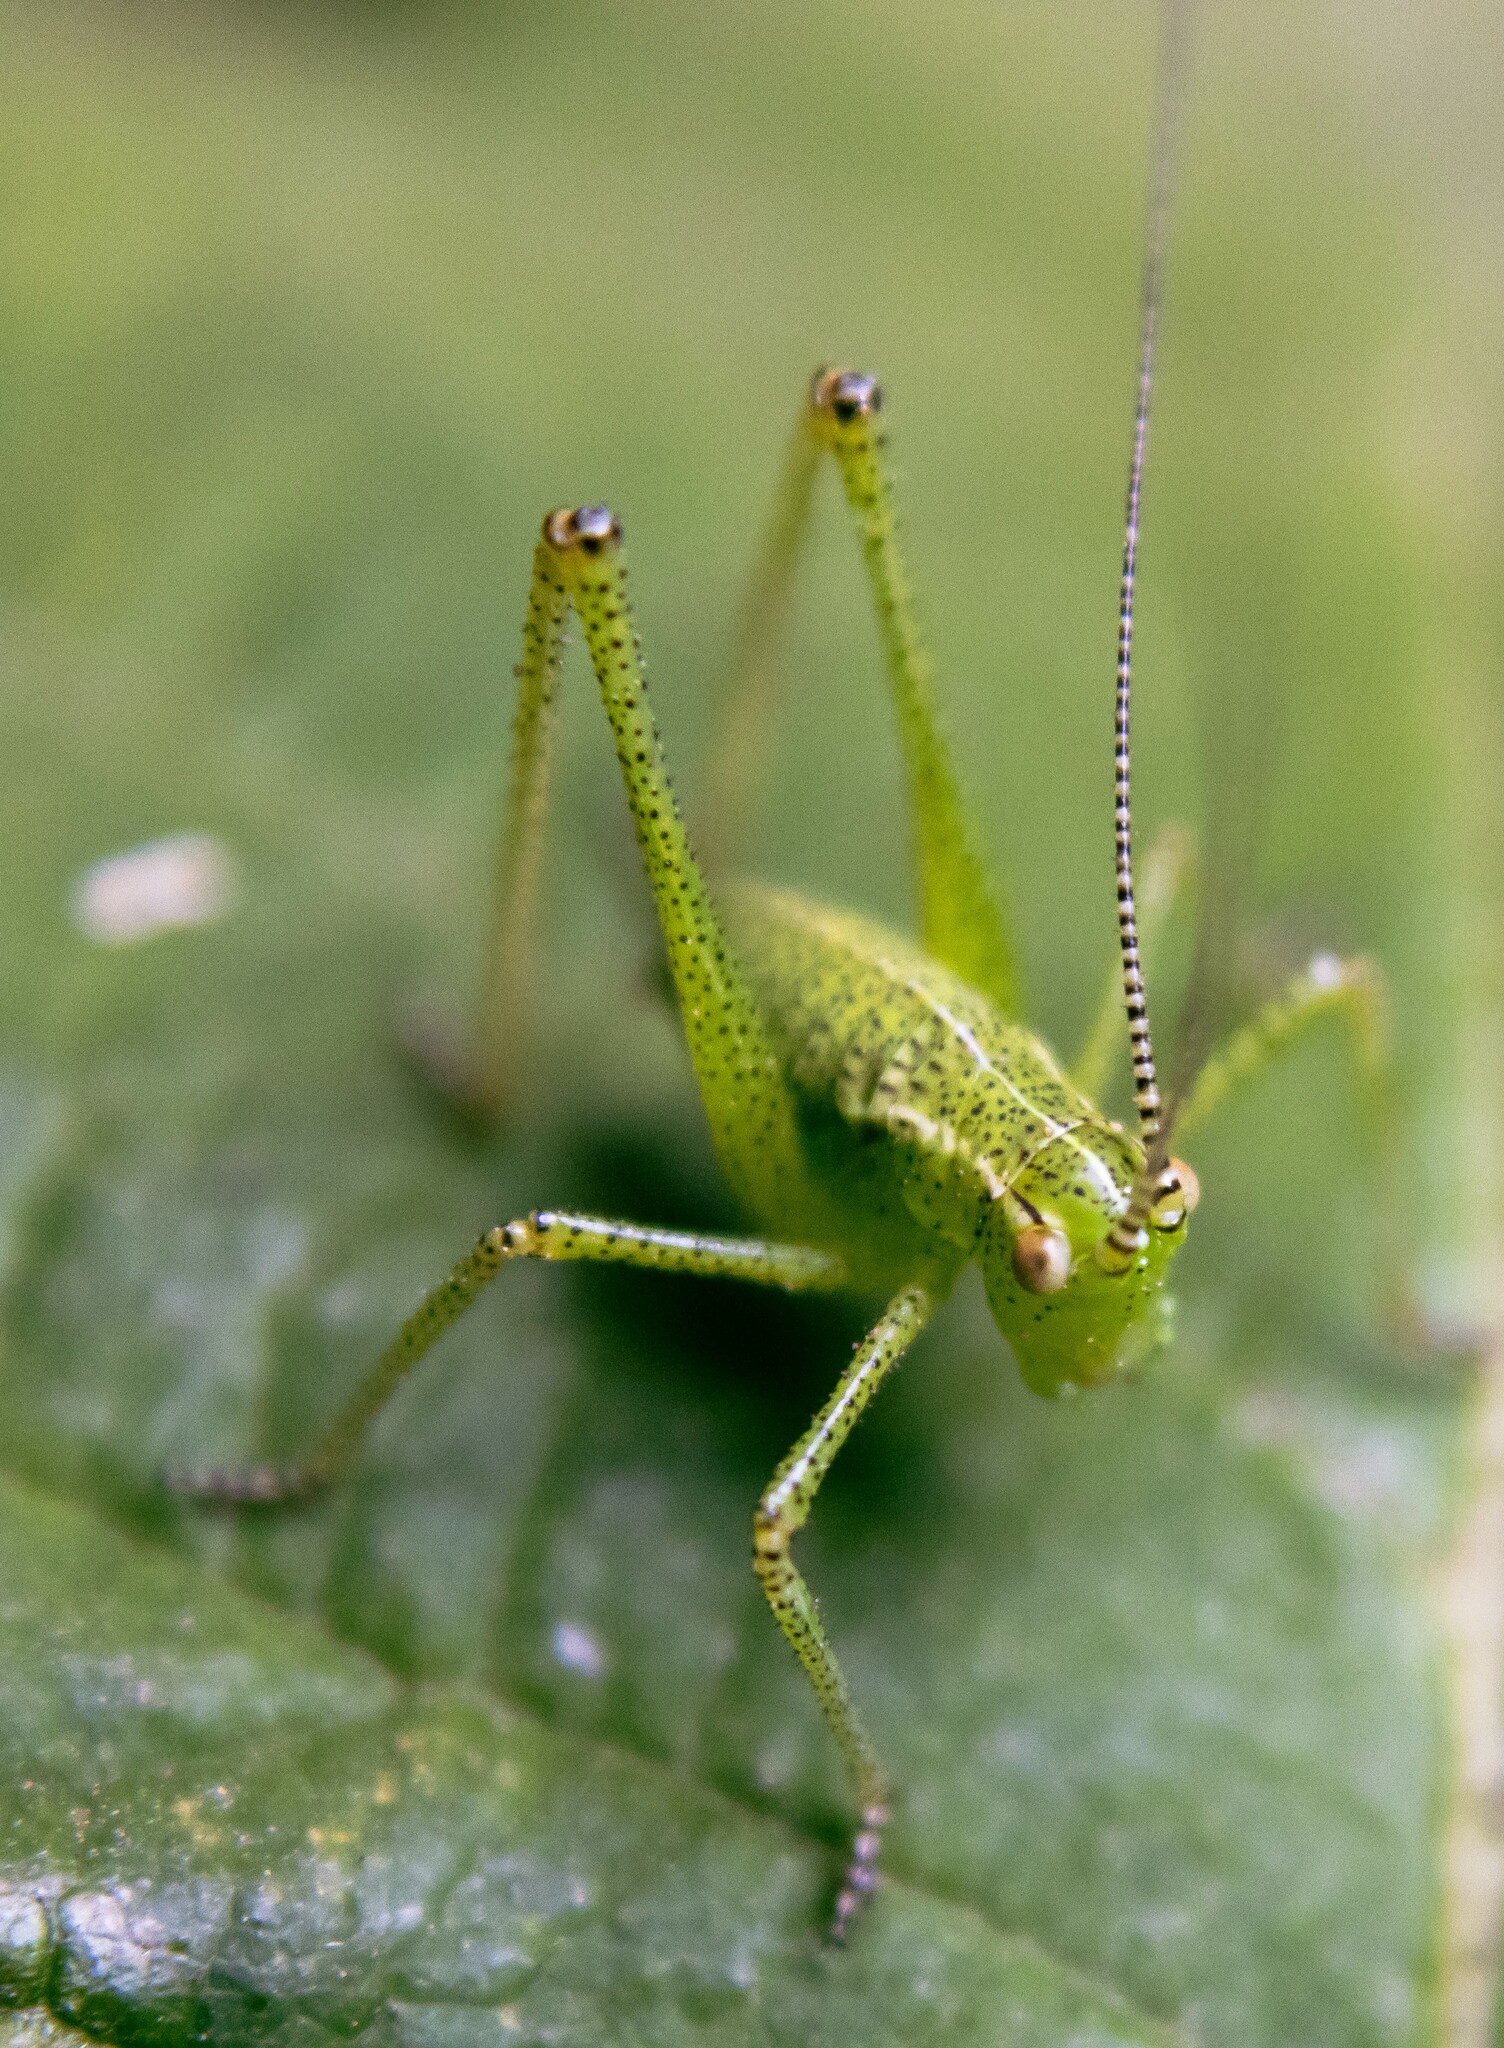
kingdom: Animalia
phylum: Arthropoda
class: Insecta
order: Orthoptera
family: Tettigoniidae
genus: Leptophyes
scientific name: Leptophyes punctatissima
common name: Speckled bush-cricket
